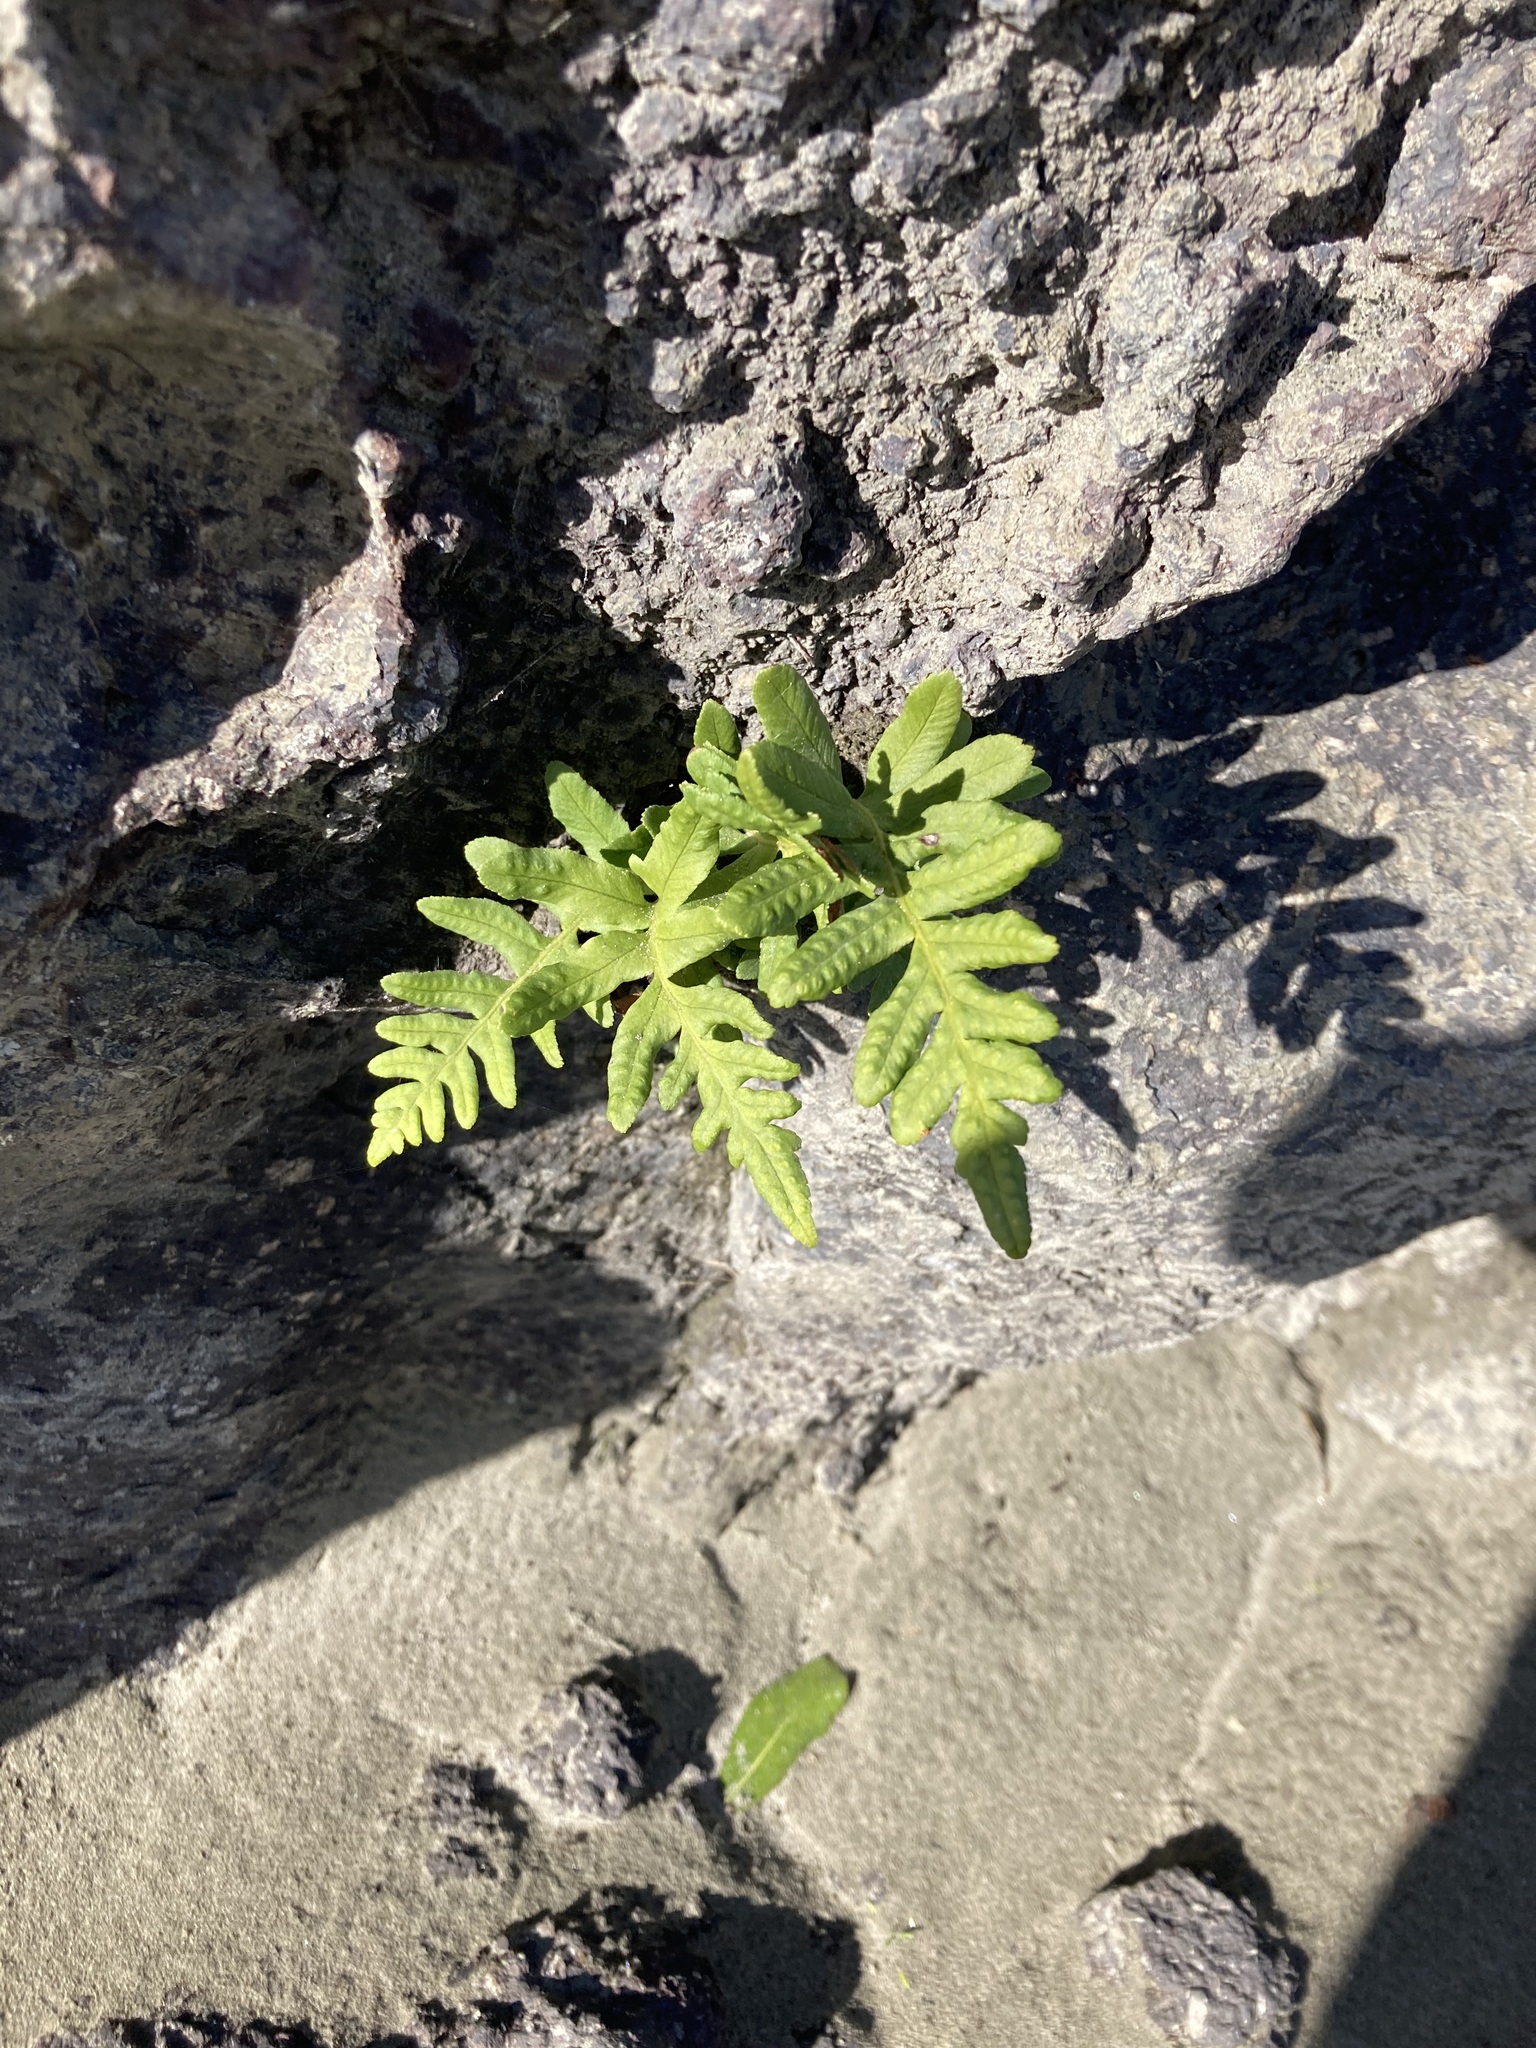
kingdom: Plantae
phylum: Tracheophyta
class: Polypodiopsida
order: Polypodiales
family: Polypodiaceae
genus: Polypodium
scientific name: Polypodium vulgare
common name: Common polypody
